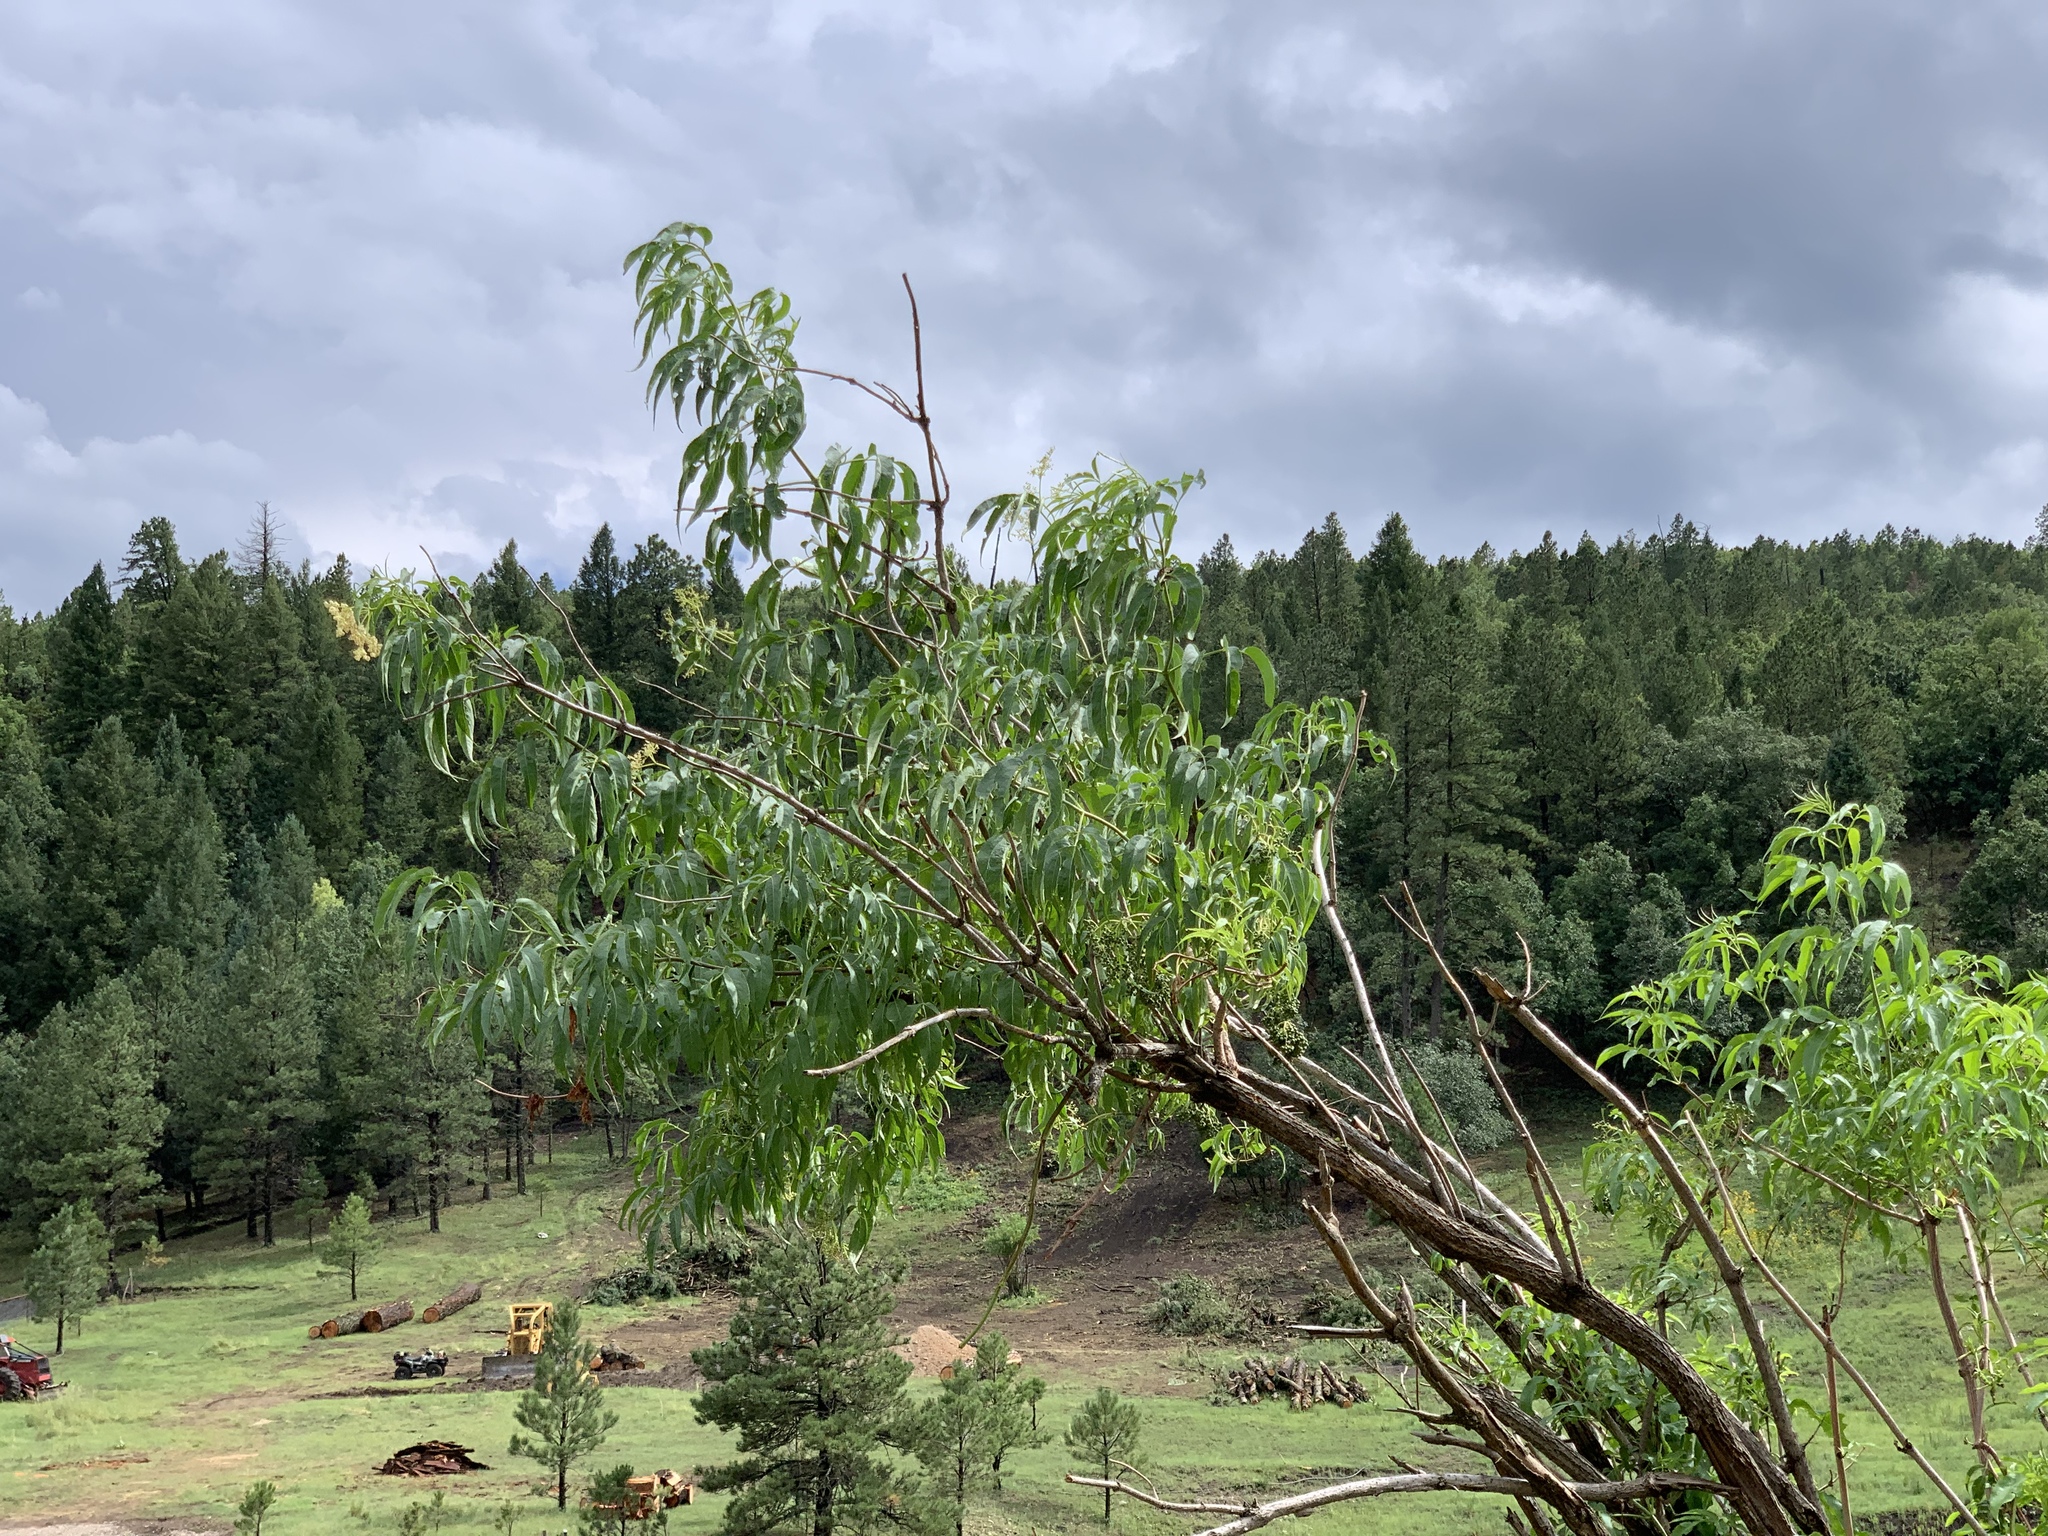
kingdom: Plantae
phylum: Tracheophyta
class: Magnoliopsida
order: Dipsacales
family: Viburnaceae
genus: Sambucus
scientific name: Sambucus cerulea
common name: Blue elder
